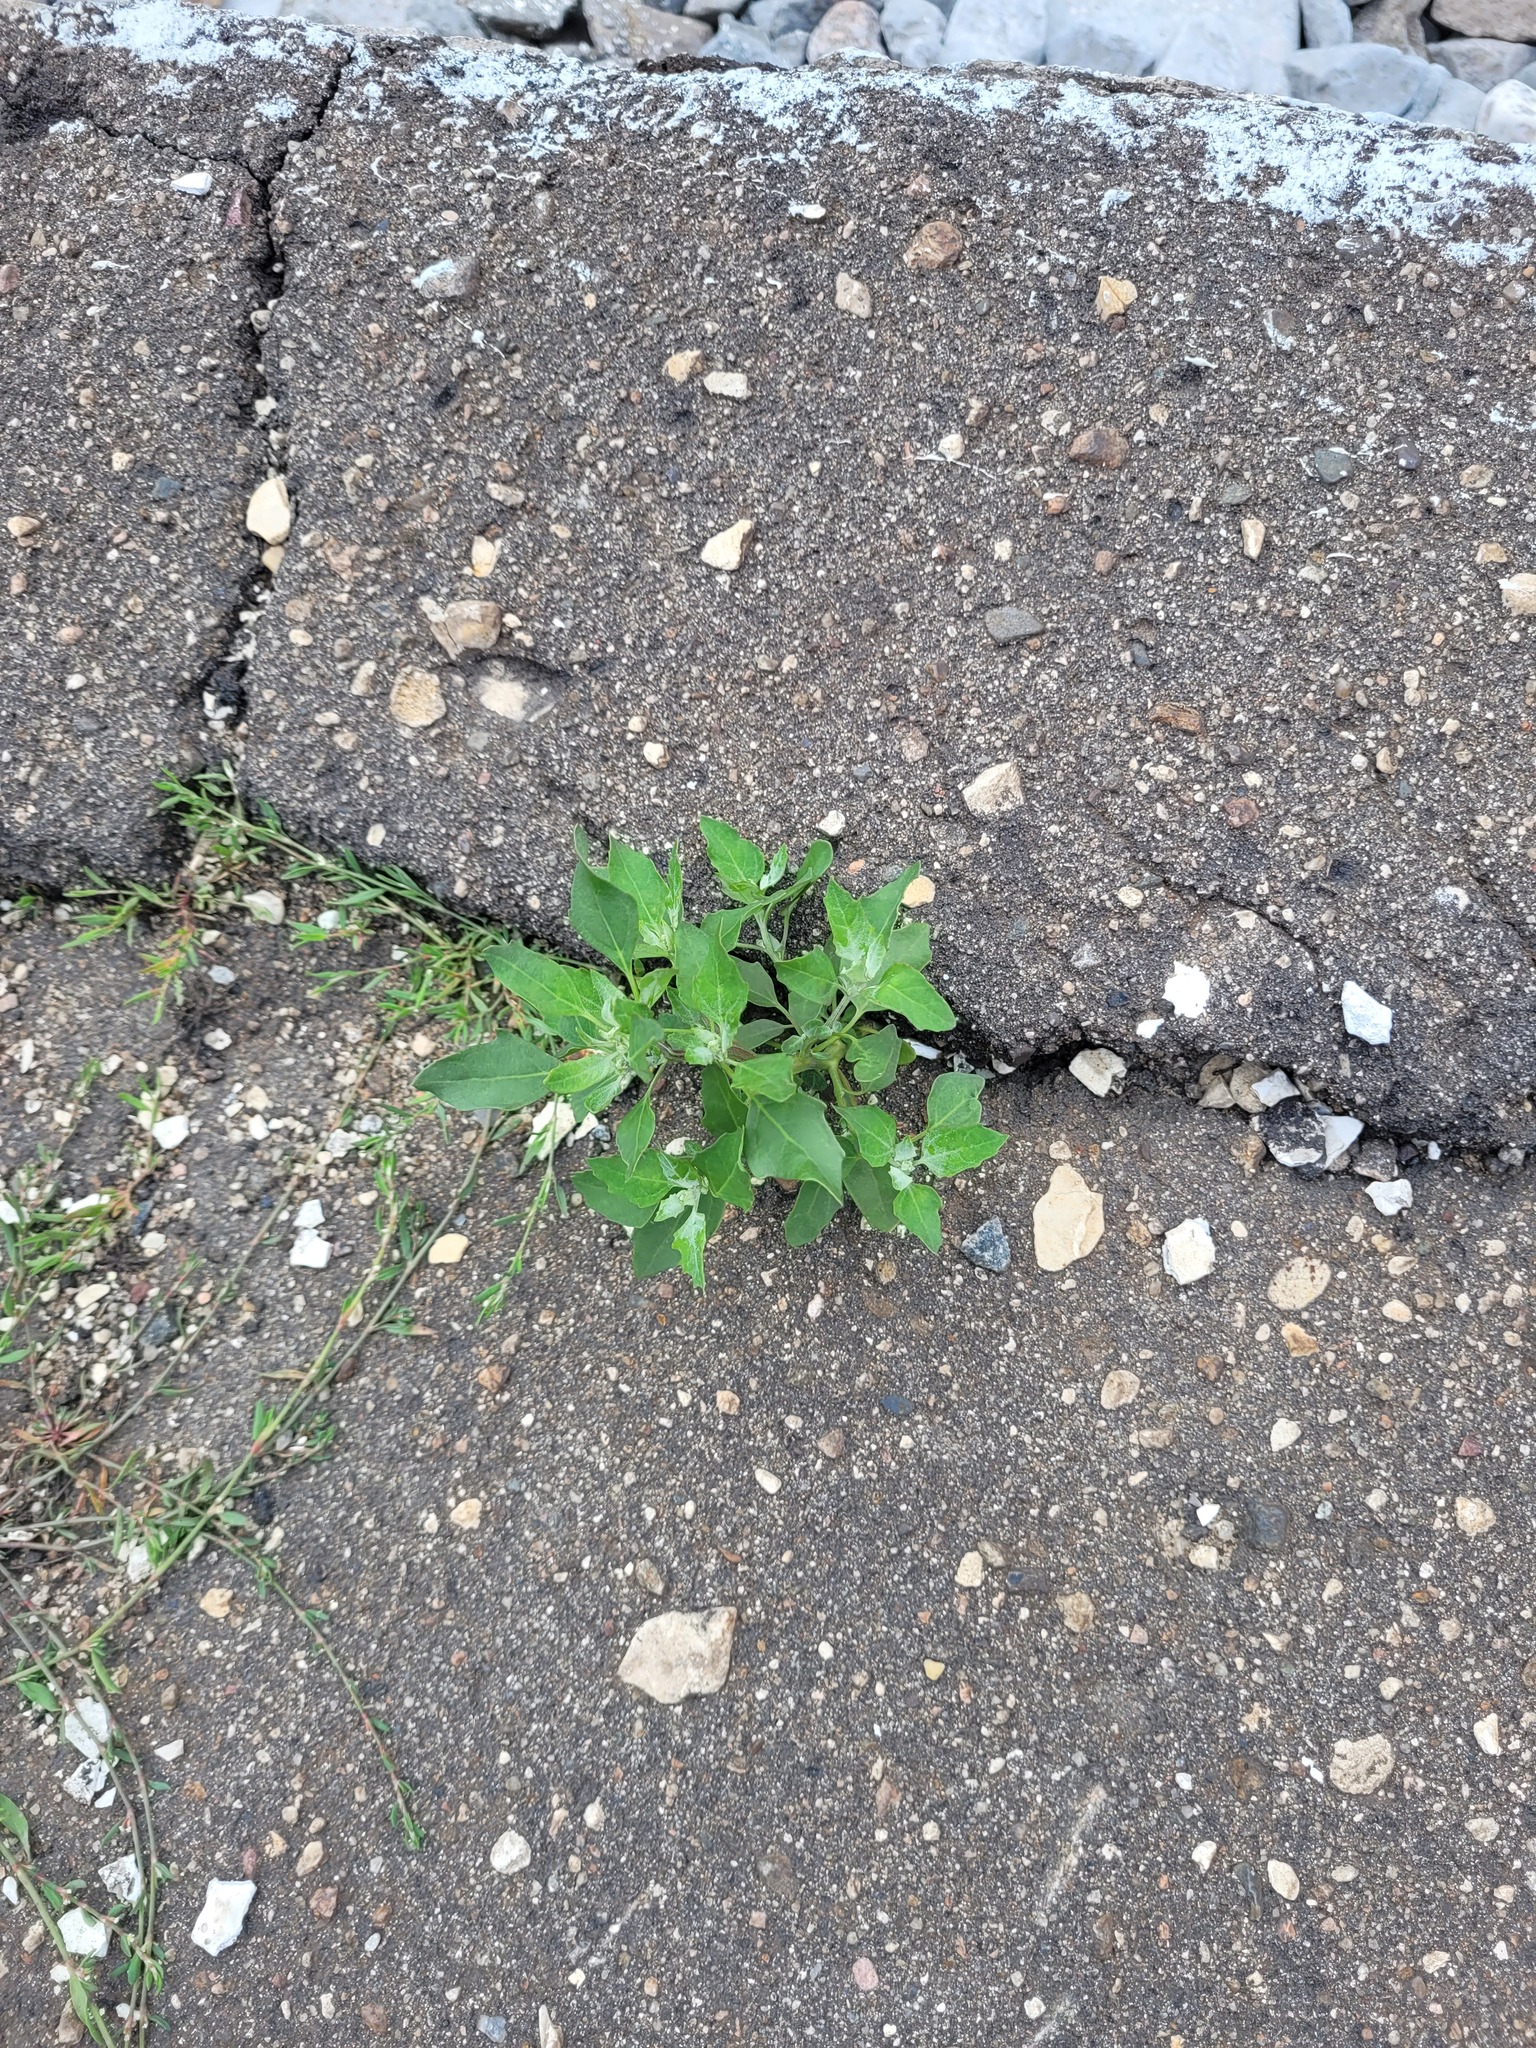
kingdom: Plantae
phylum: Tracheophyta
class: Magnoliopsida
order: Caryophyllales
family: Amaranthaceae
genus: Chenopodium
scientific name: Chenopodium album
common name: Fat-hen
